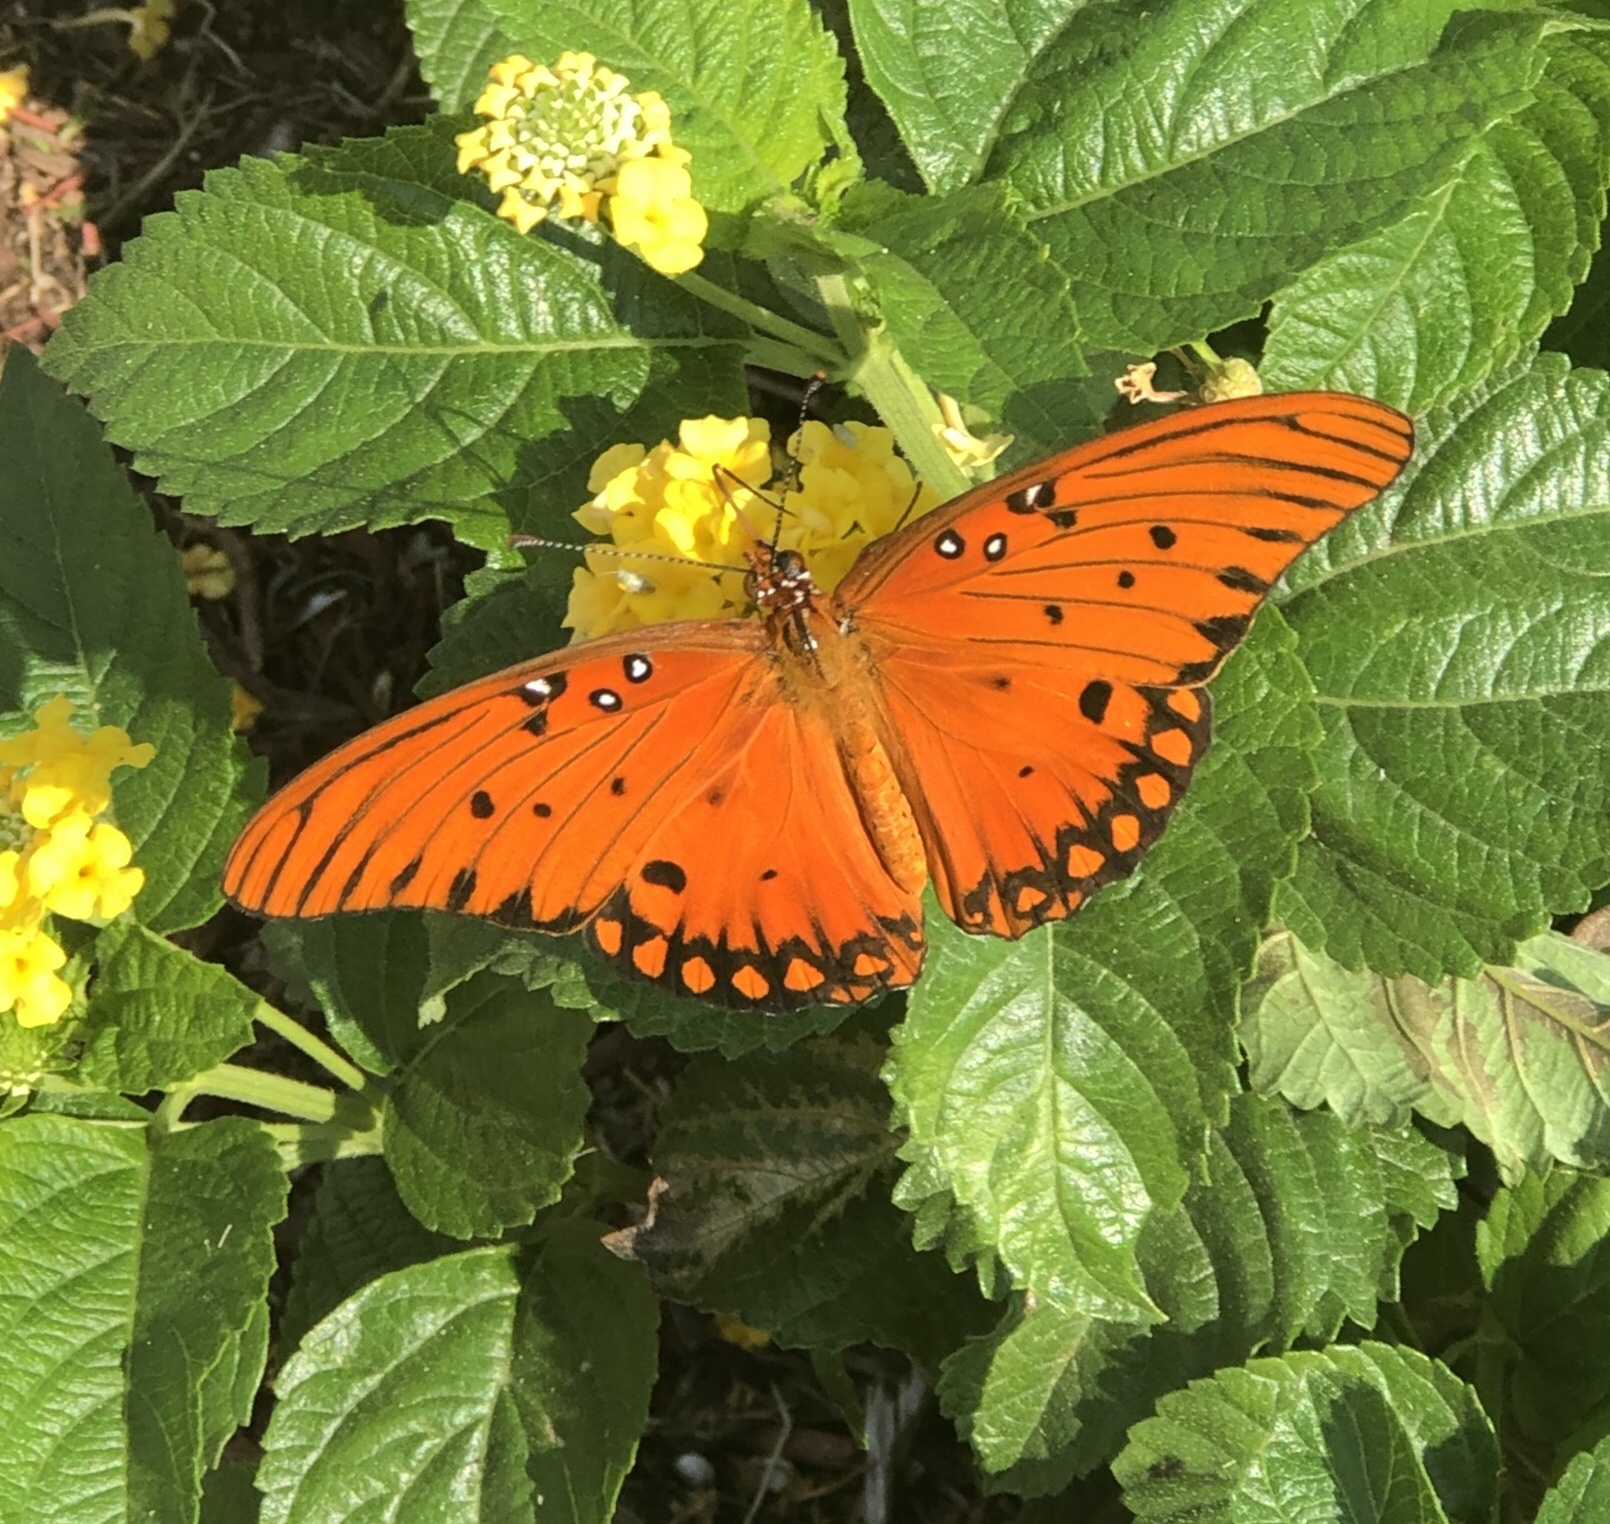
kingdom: Animalia
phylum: Arthropoda
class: Insecta
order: Lepidoptera
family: Nymphalidae
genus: Dione
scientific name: Dione vanillae
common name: Gulf fritillary
